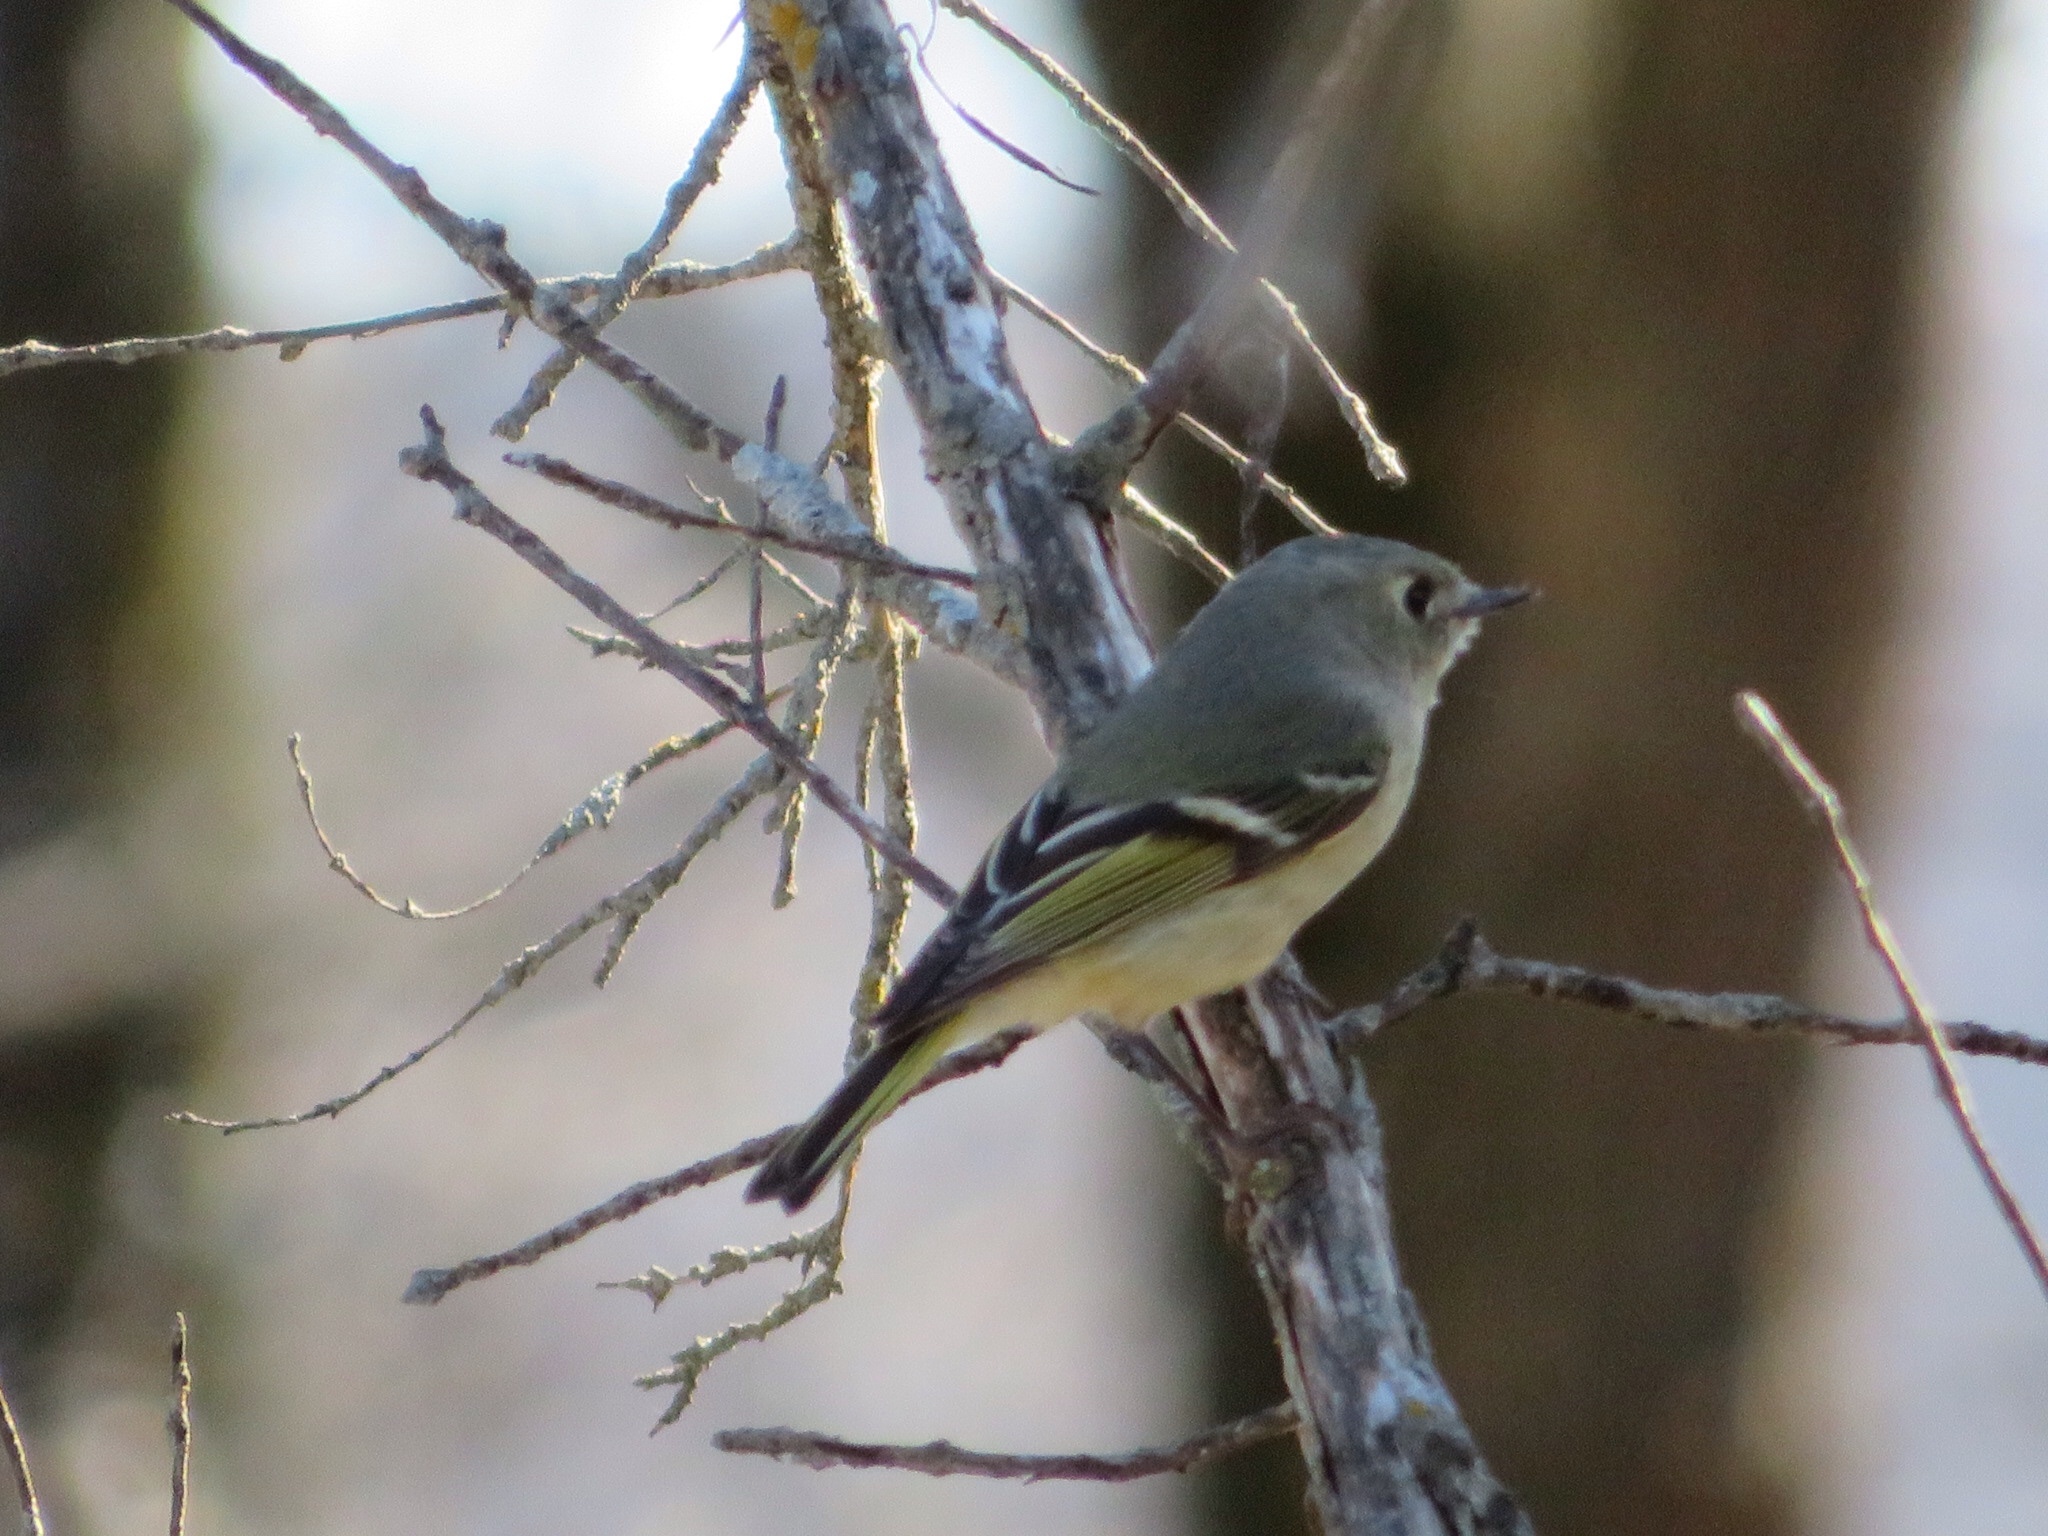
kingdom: Animalia
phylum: Chordata
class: Aves
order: Passeriformes
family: Regulidae
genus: Regulus
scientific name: Regulus calendula
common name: Ruby-crowned kinglet
